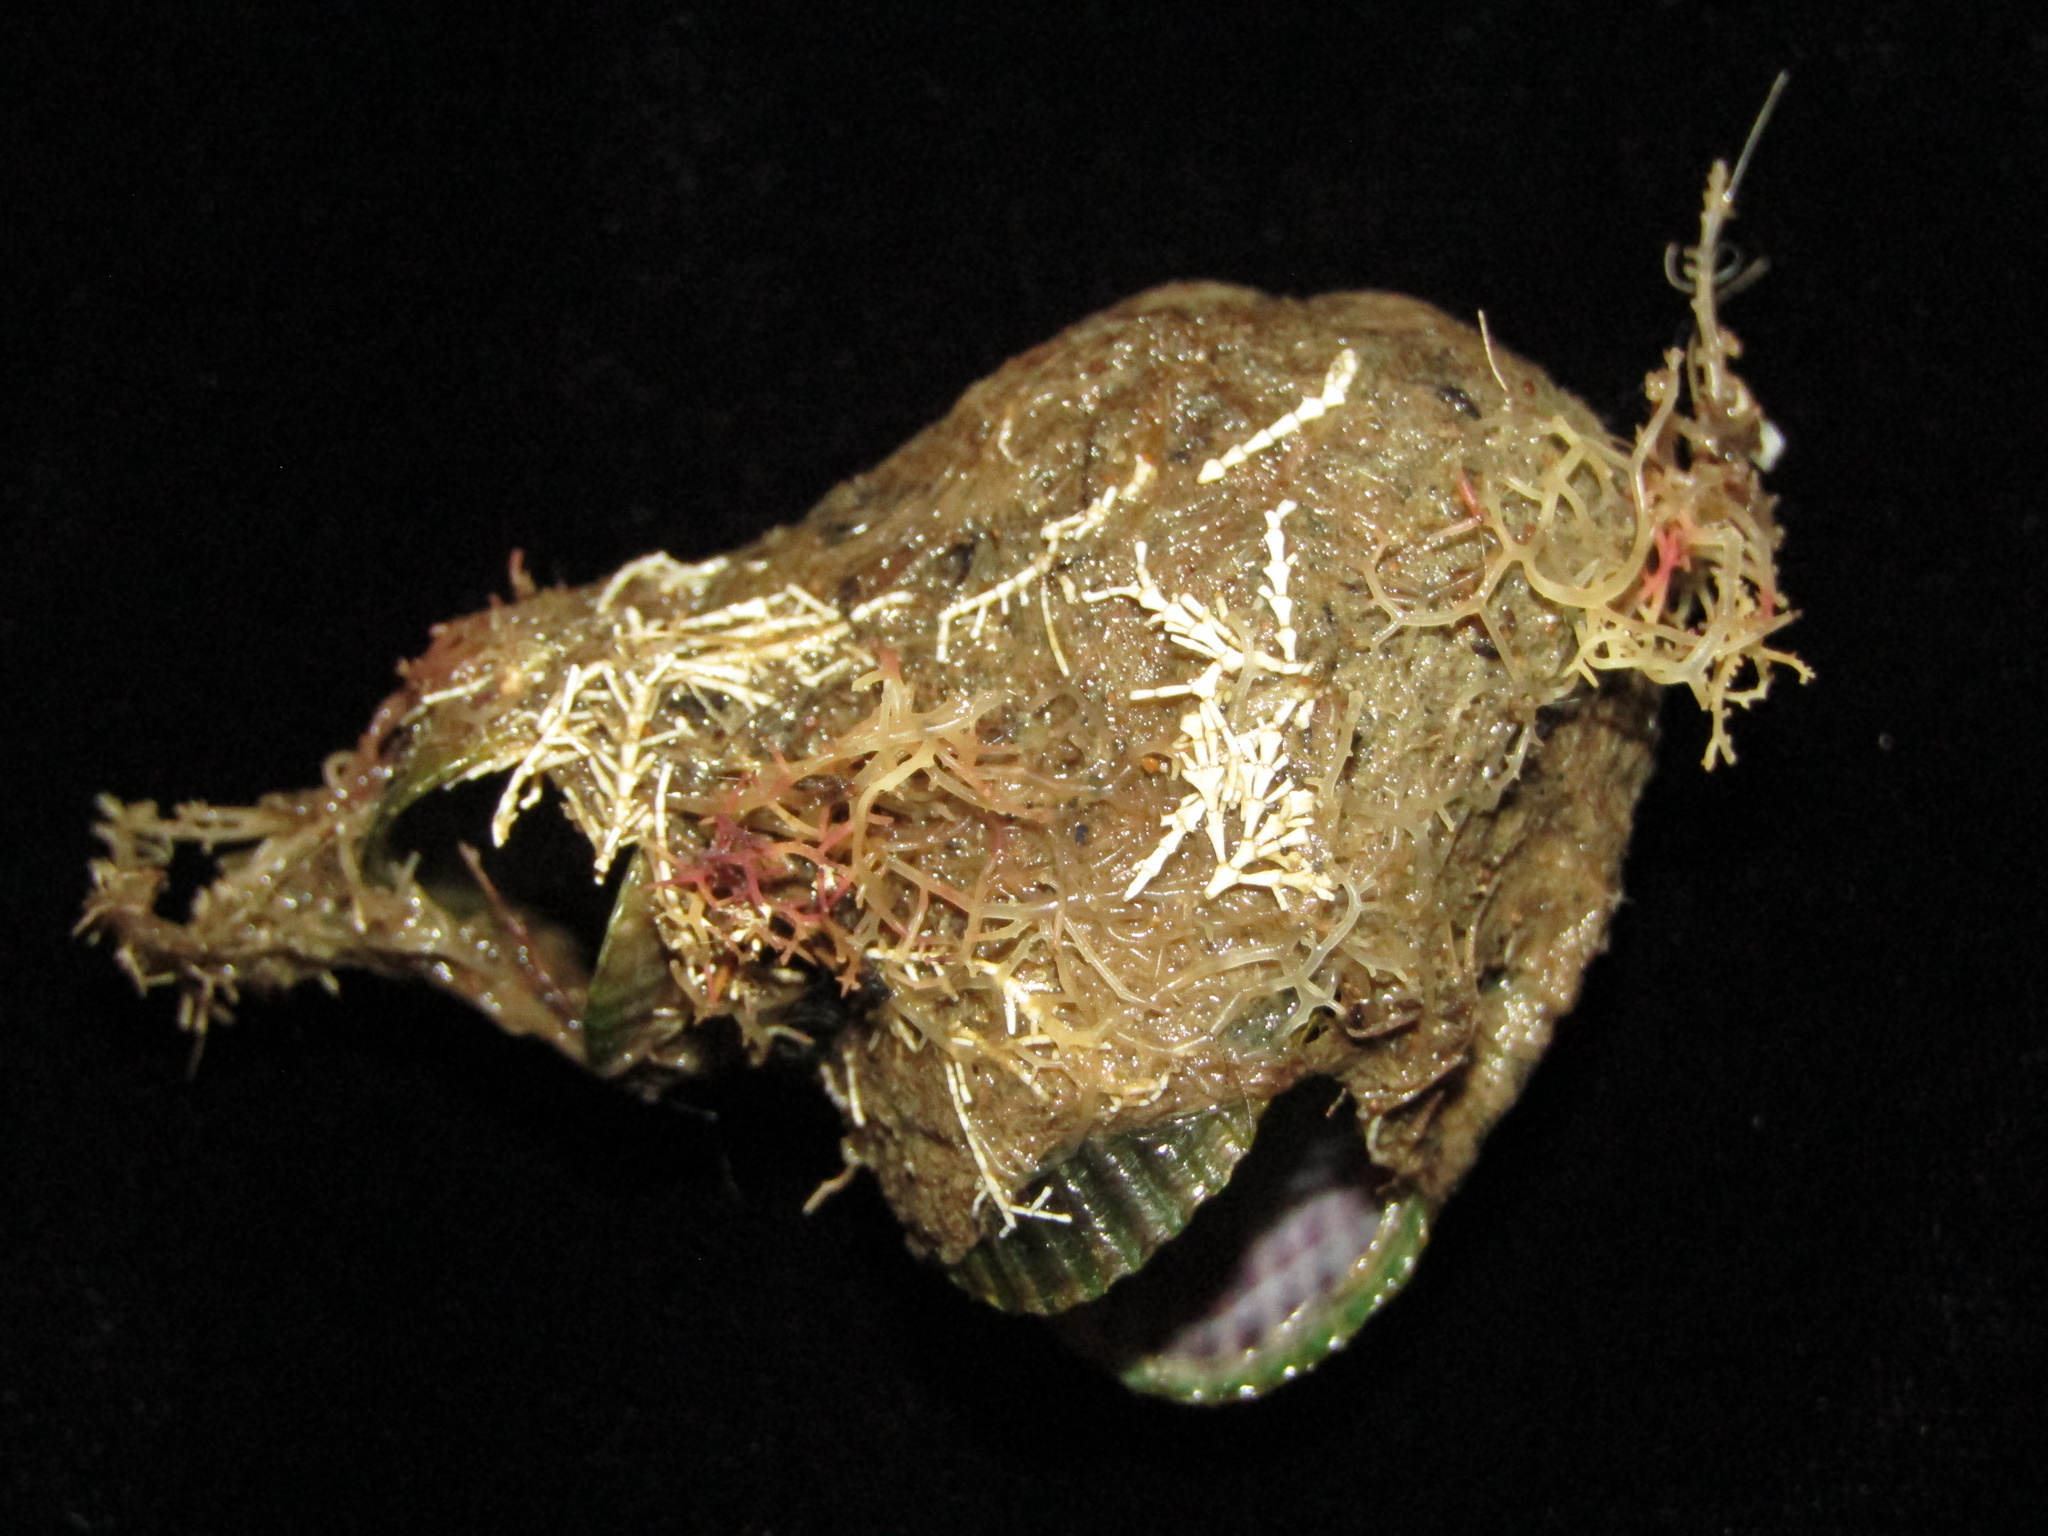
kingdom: Animalia
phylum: Mollusca
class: Bivalvia
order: Mytilida
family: Mytilidae
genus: Musculus
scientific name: Musculus impactus
